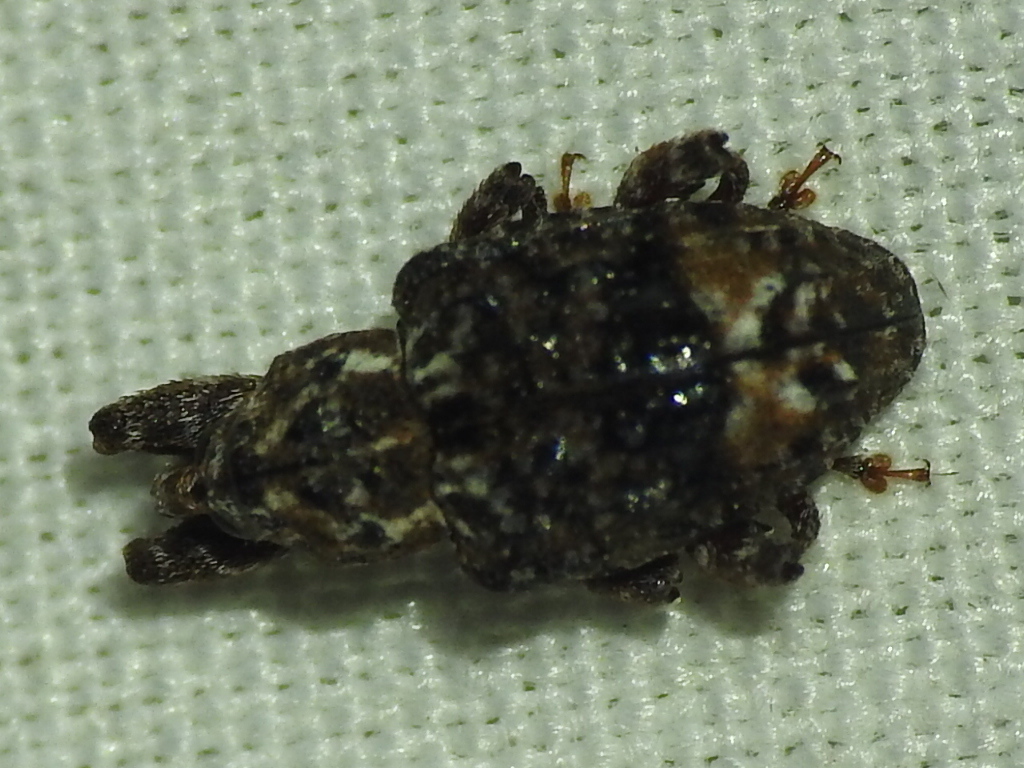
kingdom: Animalia
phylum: Arthropoda
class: Insecta
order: Coleoptera
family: Curculionidae
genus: Conotrachelus
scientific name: Conotrachelus nenuphar
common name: Plum curculio
